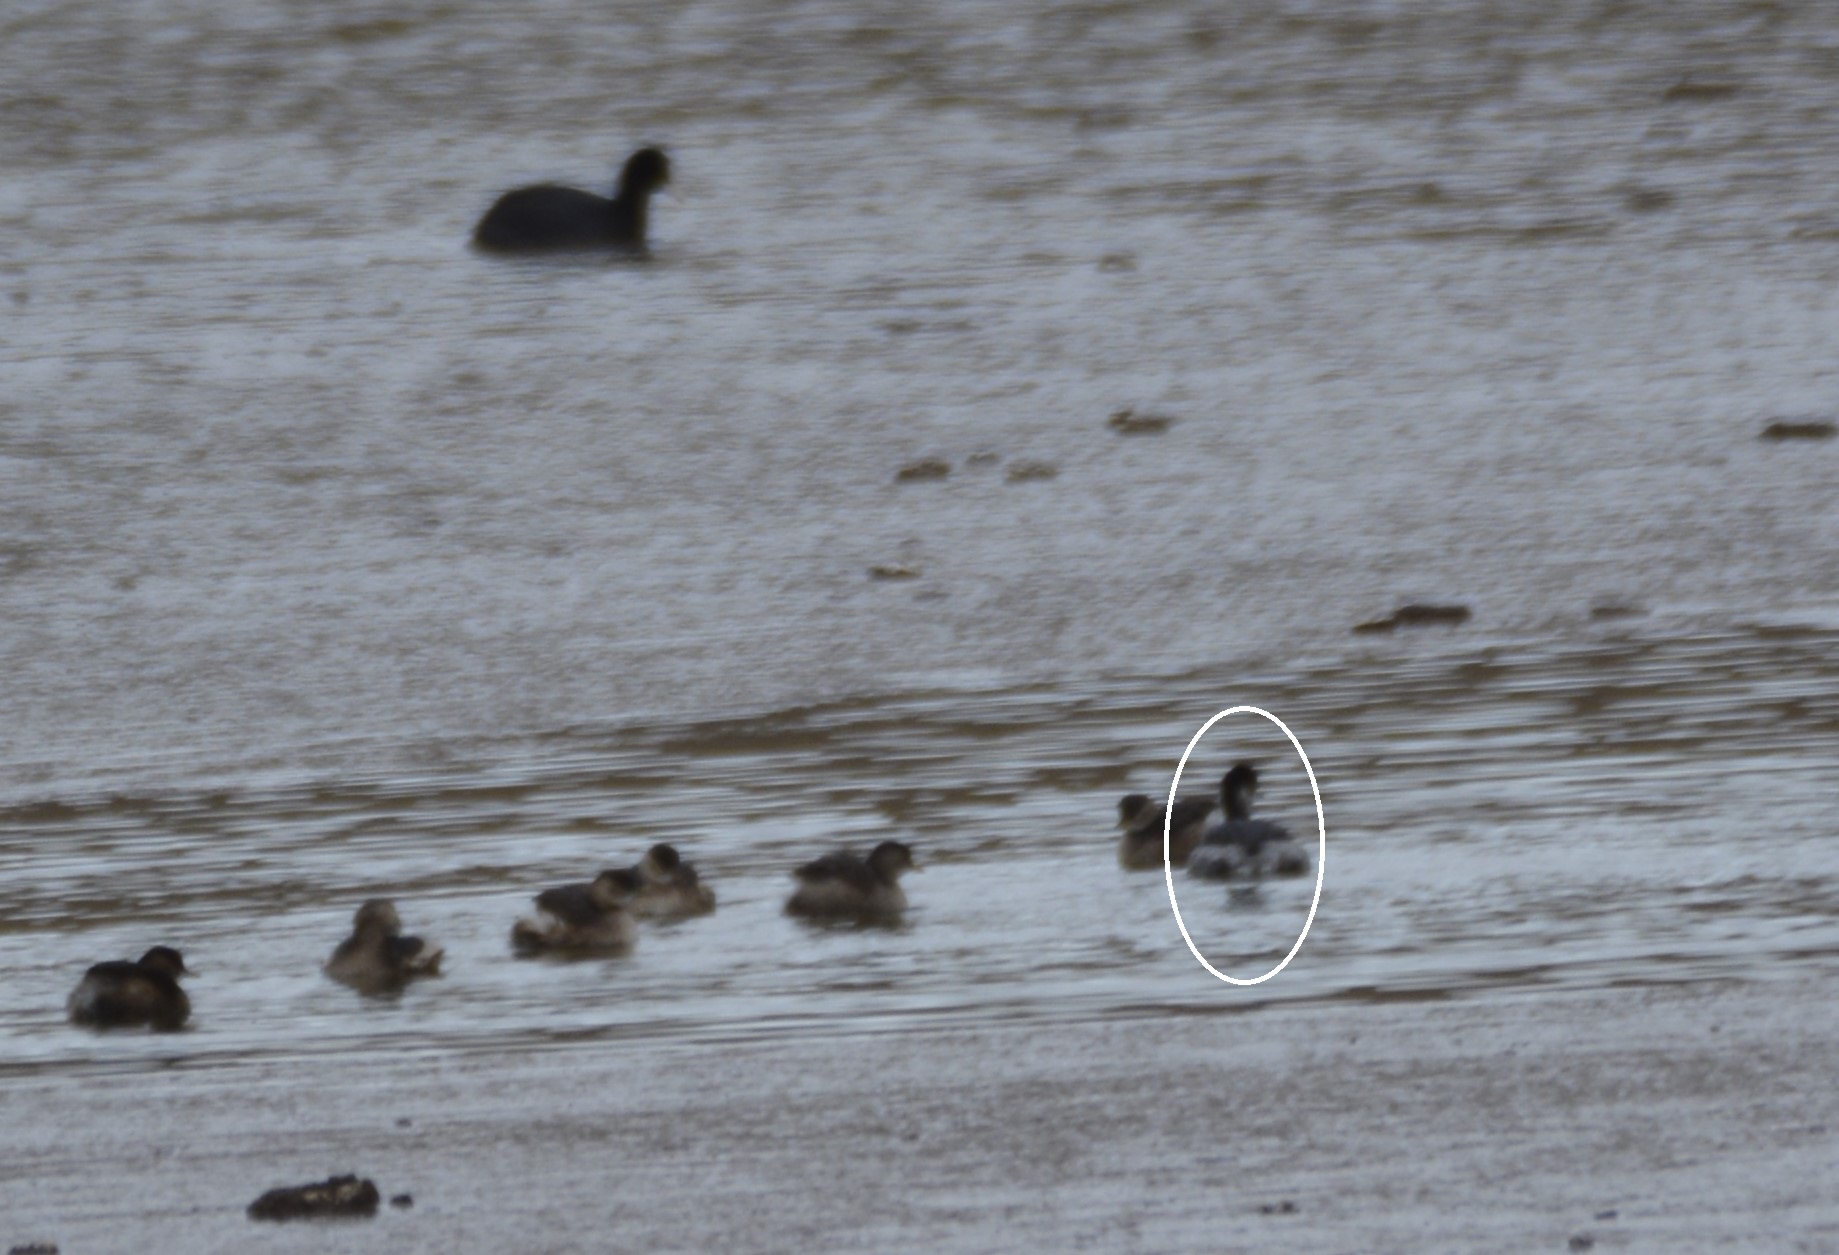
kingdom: Animalia
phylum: Chordata
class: Aves
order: Podicipediformes
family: Podicipedidae
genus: Podiceps
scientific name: Podiceps nigricollis
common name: Black-necked grebe
